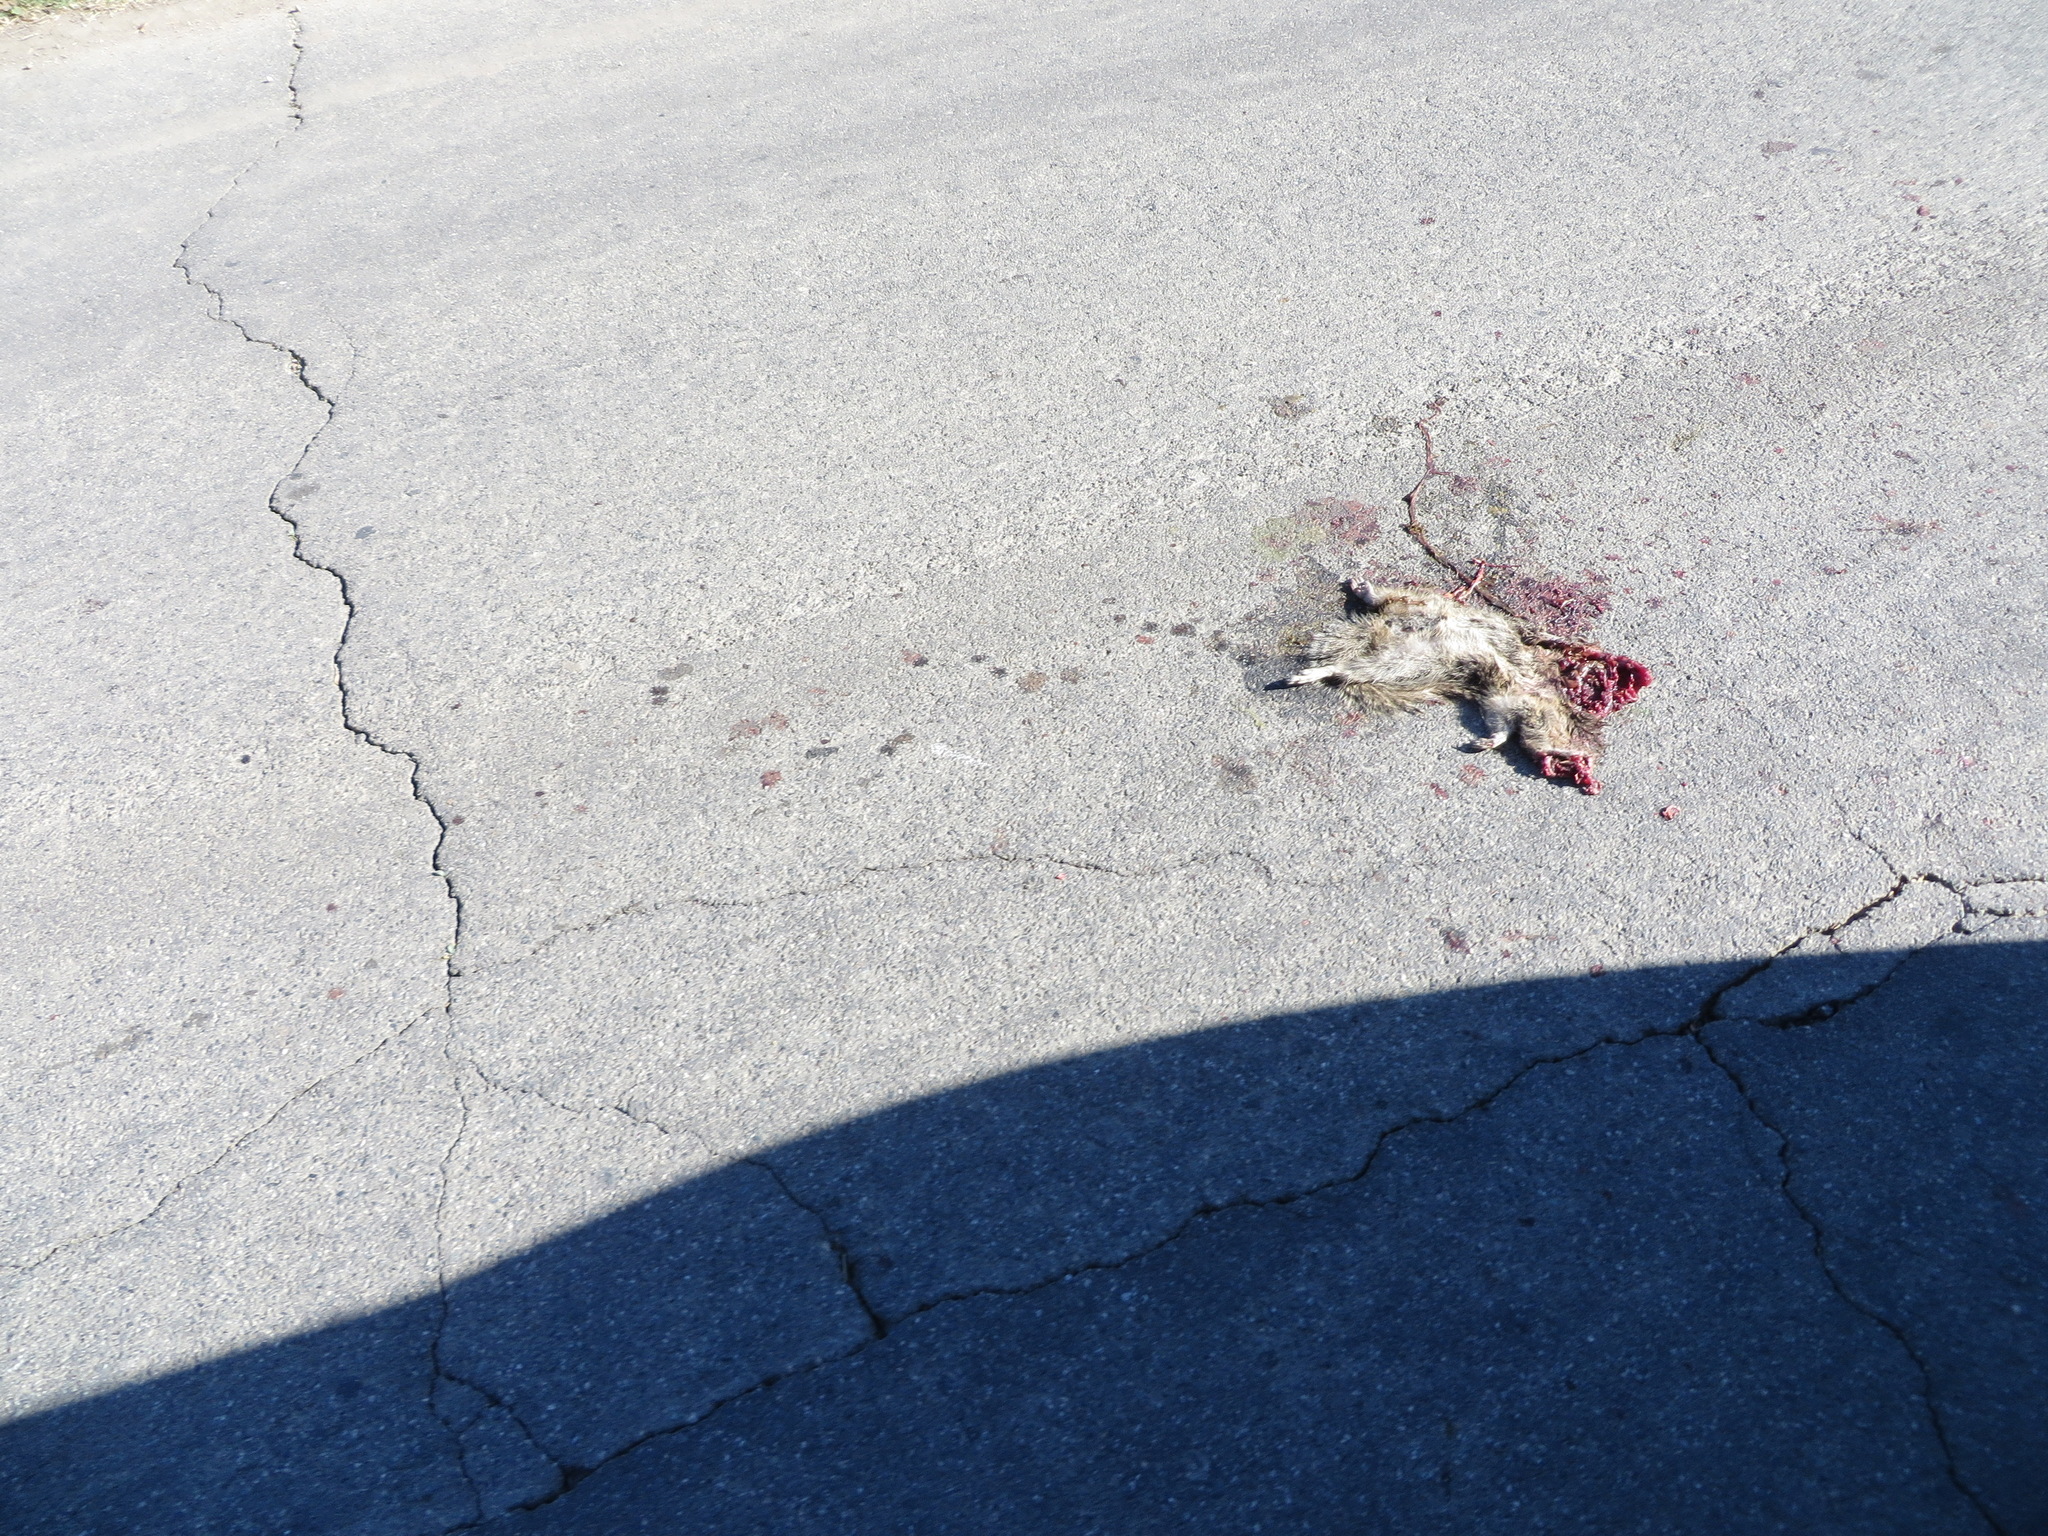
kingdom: Animalia
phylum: Chordata
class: Mammalia
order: Rodentia
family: Sciuridae
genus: Otospermophilus
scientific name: Otospermophilus beecheyi
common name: California ground squirrel
